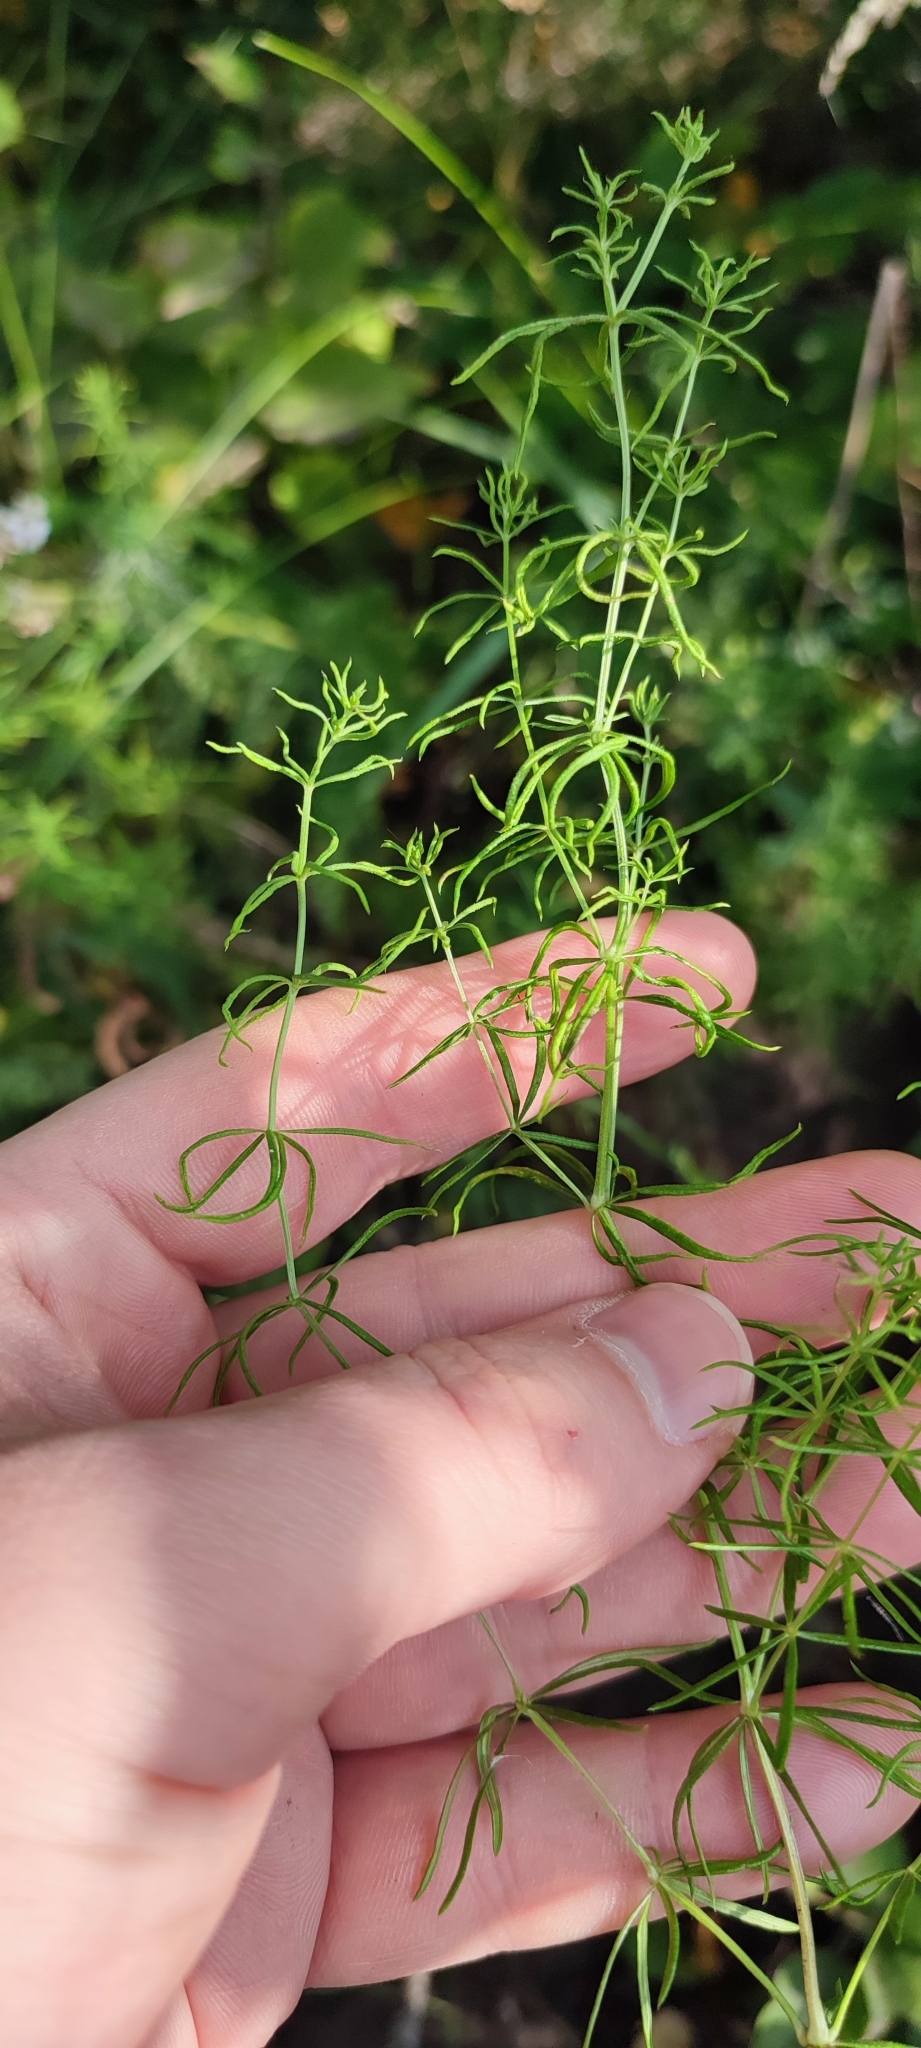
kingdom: Plantae
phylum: Tracheophyta
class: Magnoliopsida
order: Gentianales
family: Rubiaceae
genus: Galium
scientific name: Galium verum
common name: Lady's bedstraw
